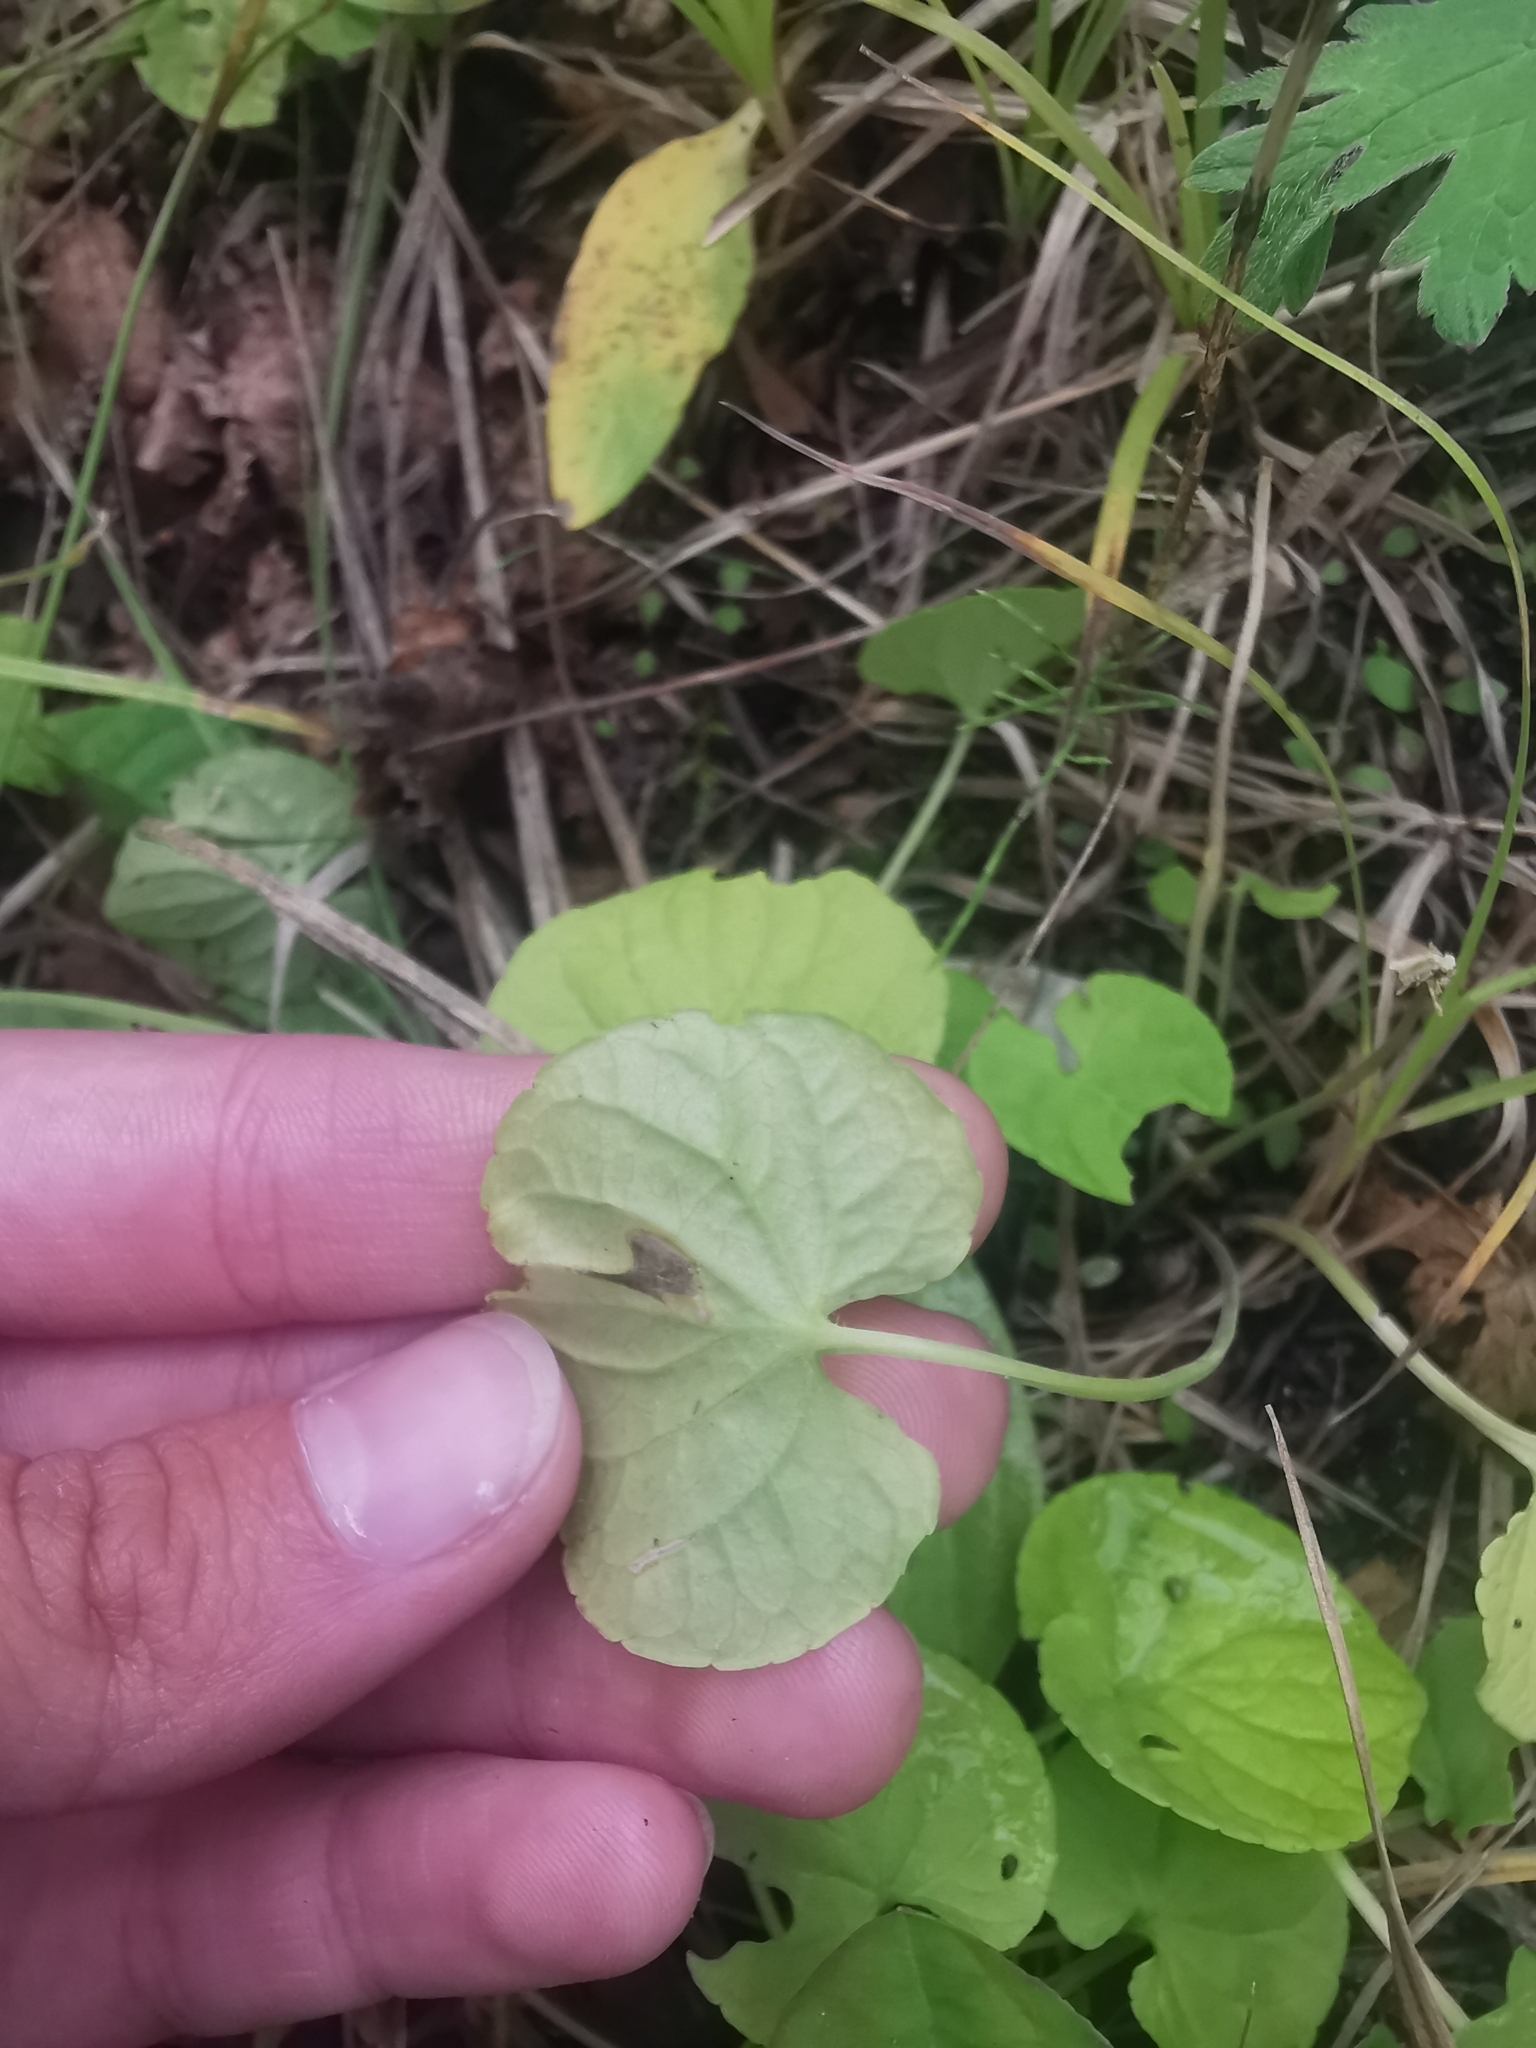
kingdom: Plantae
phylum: Tracheophyta
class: Magnoliopsida
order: Malpighiales
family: Violaceae
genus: Viola
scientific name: Viola epipsila
